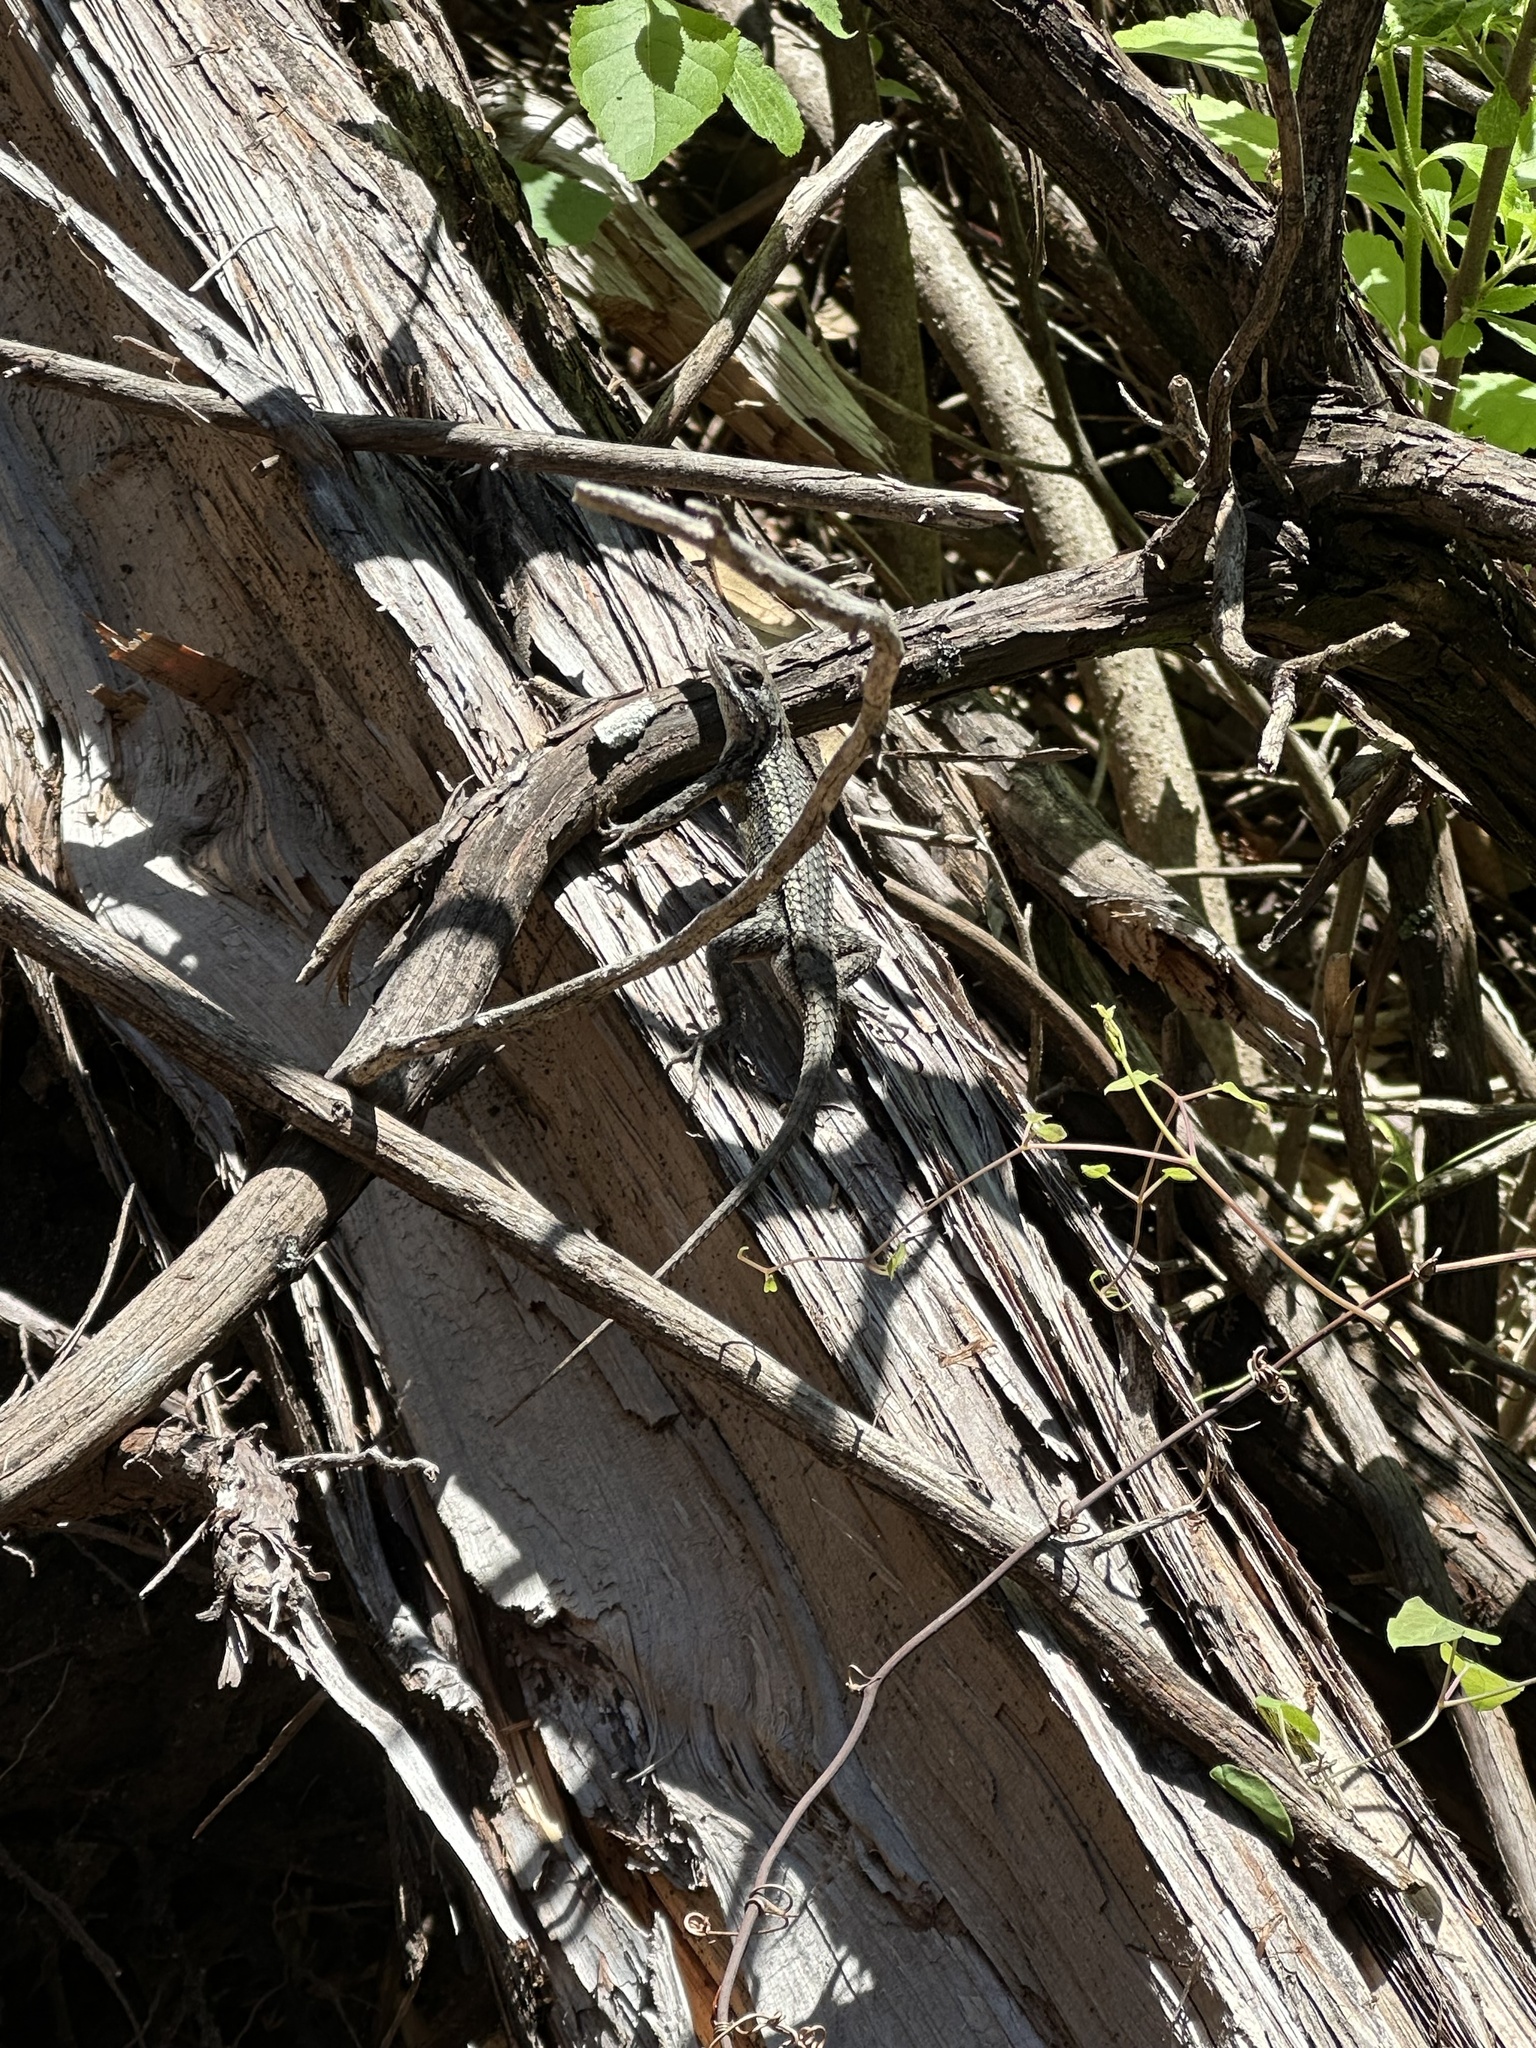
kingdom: Animalia
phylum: Chordata
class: Squamata
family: Phrynosomatidae
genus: Sceloporus
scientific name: Sceloporus olivaceus
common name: Texas spiny lizard
